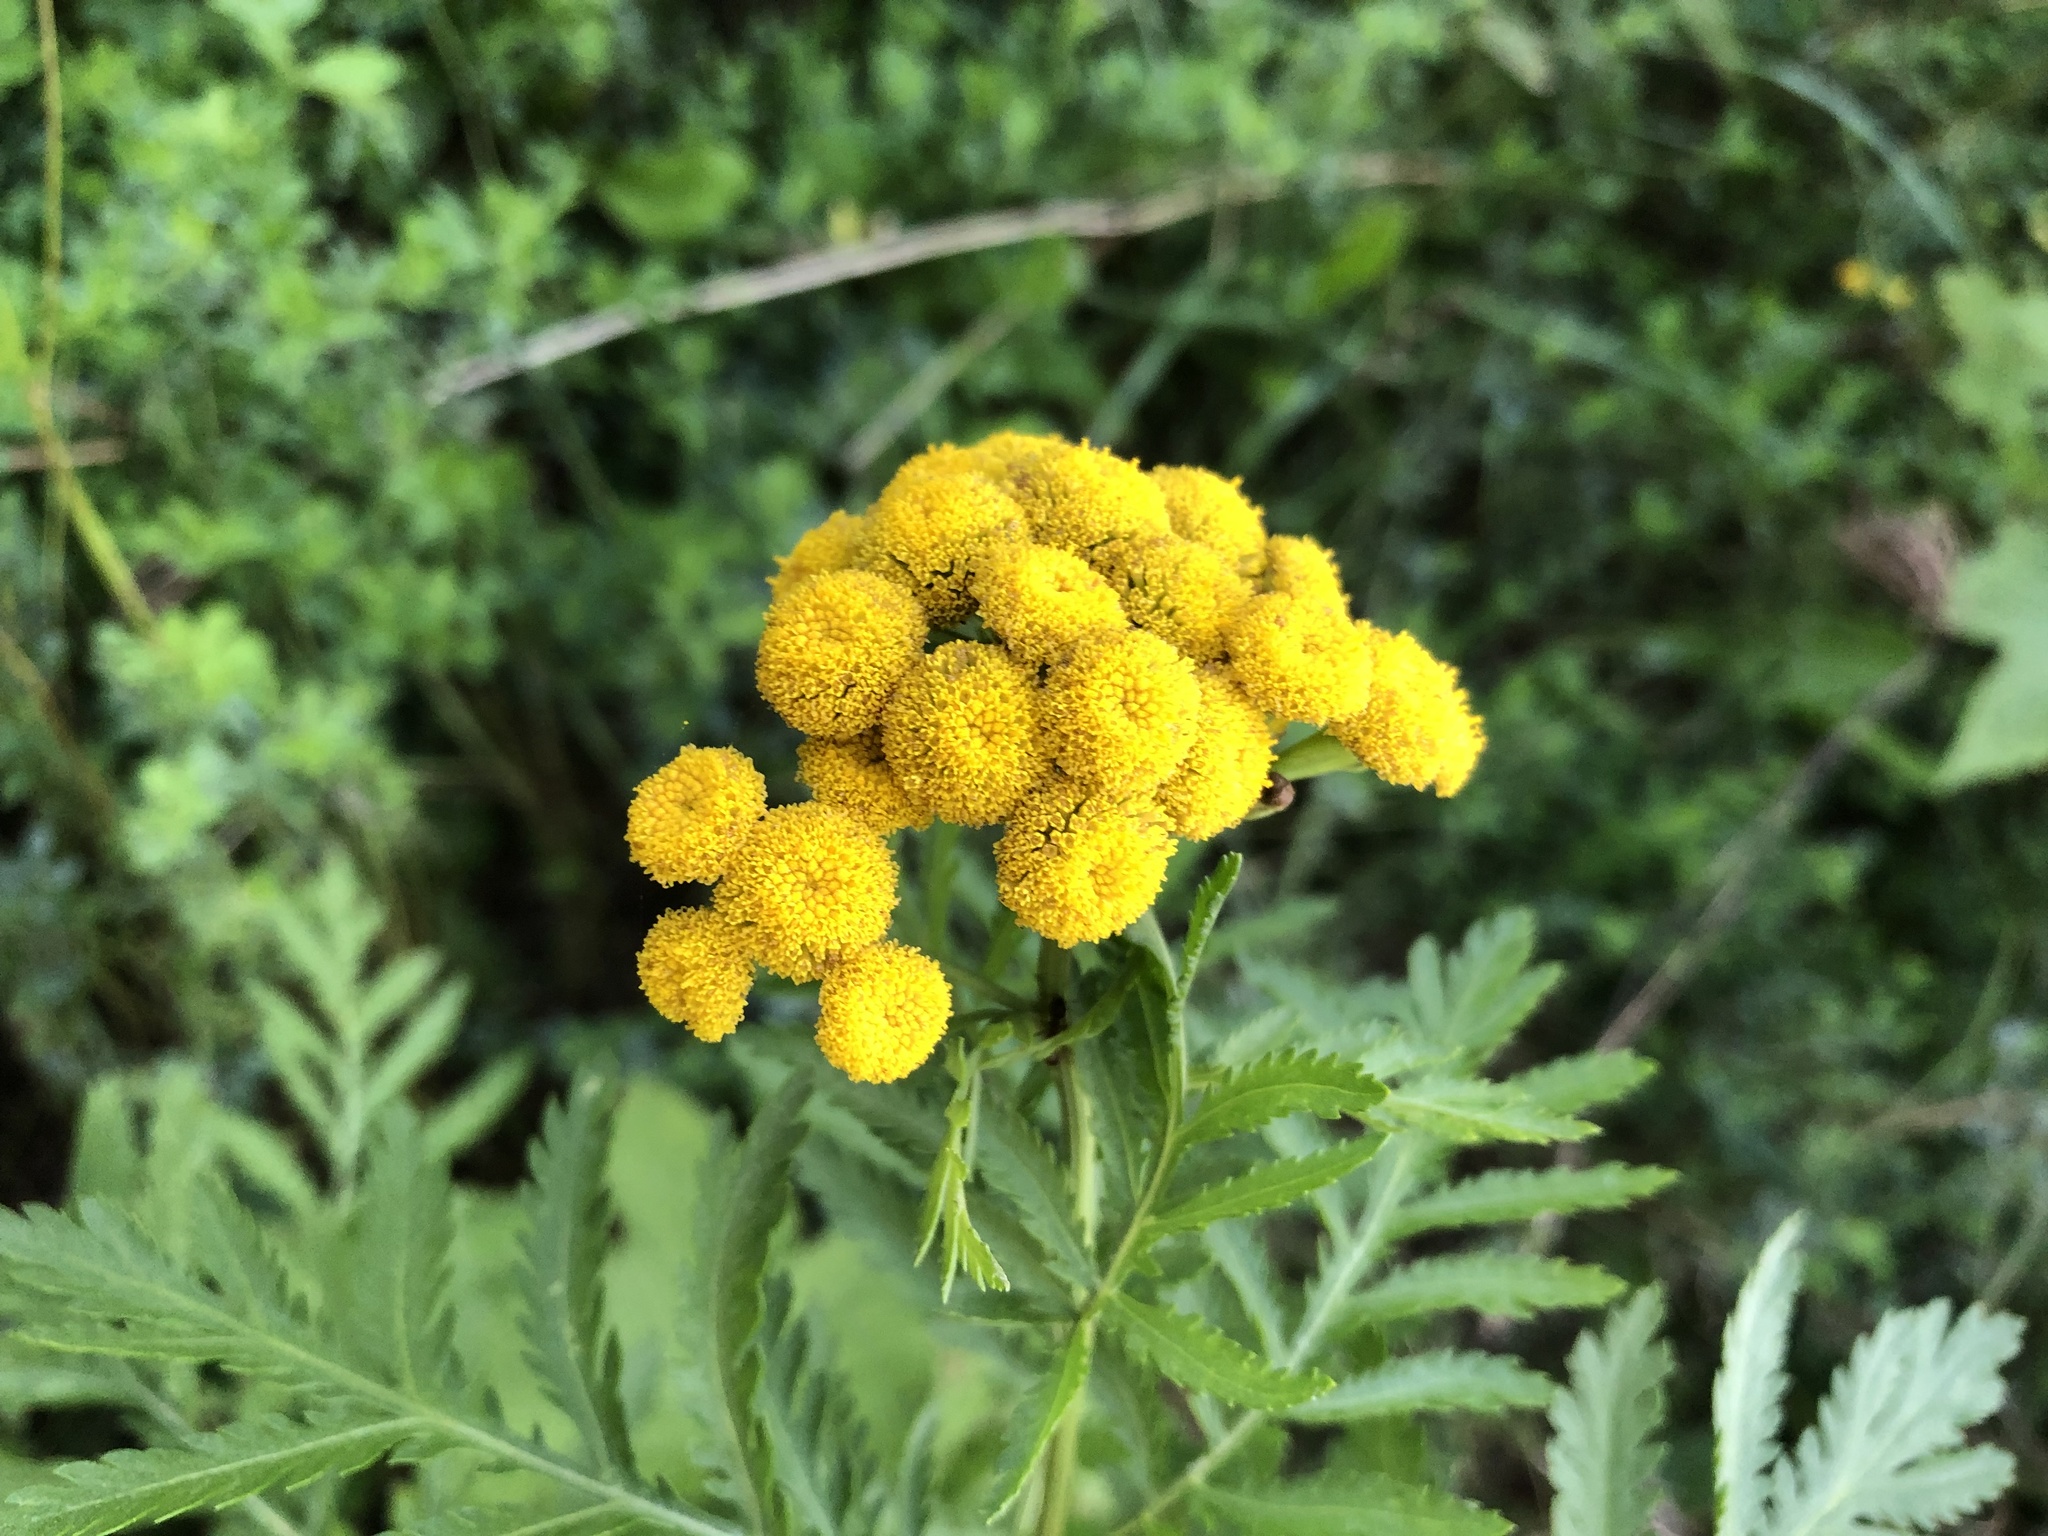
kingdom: Plantae
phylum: Tracheophyta
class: Magnoliopsida
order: Asterales
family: Asteraceae
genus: Tanacetum
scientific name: Tanacetum vulgare
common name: Common tansy
